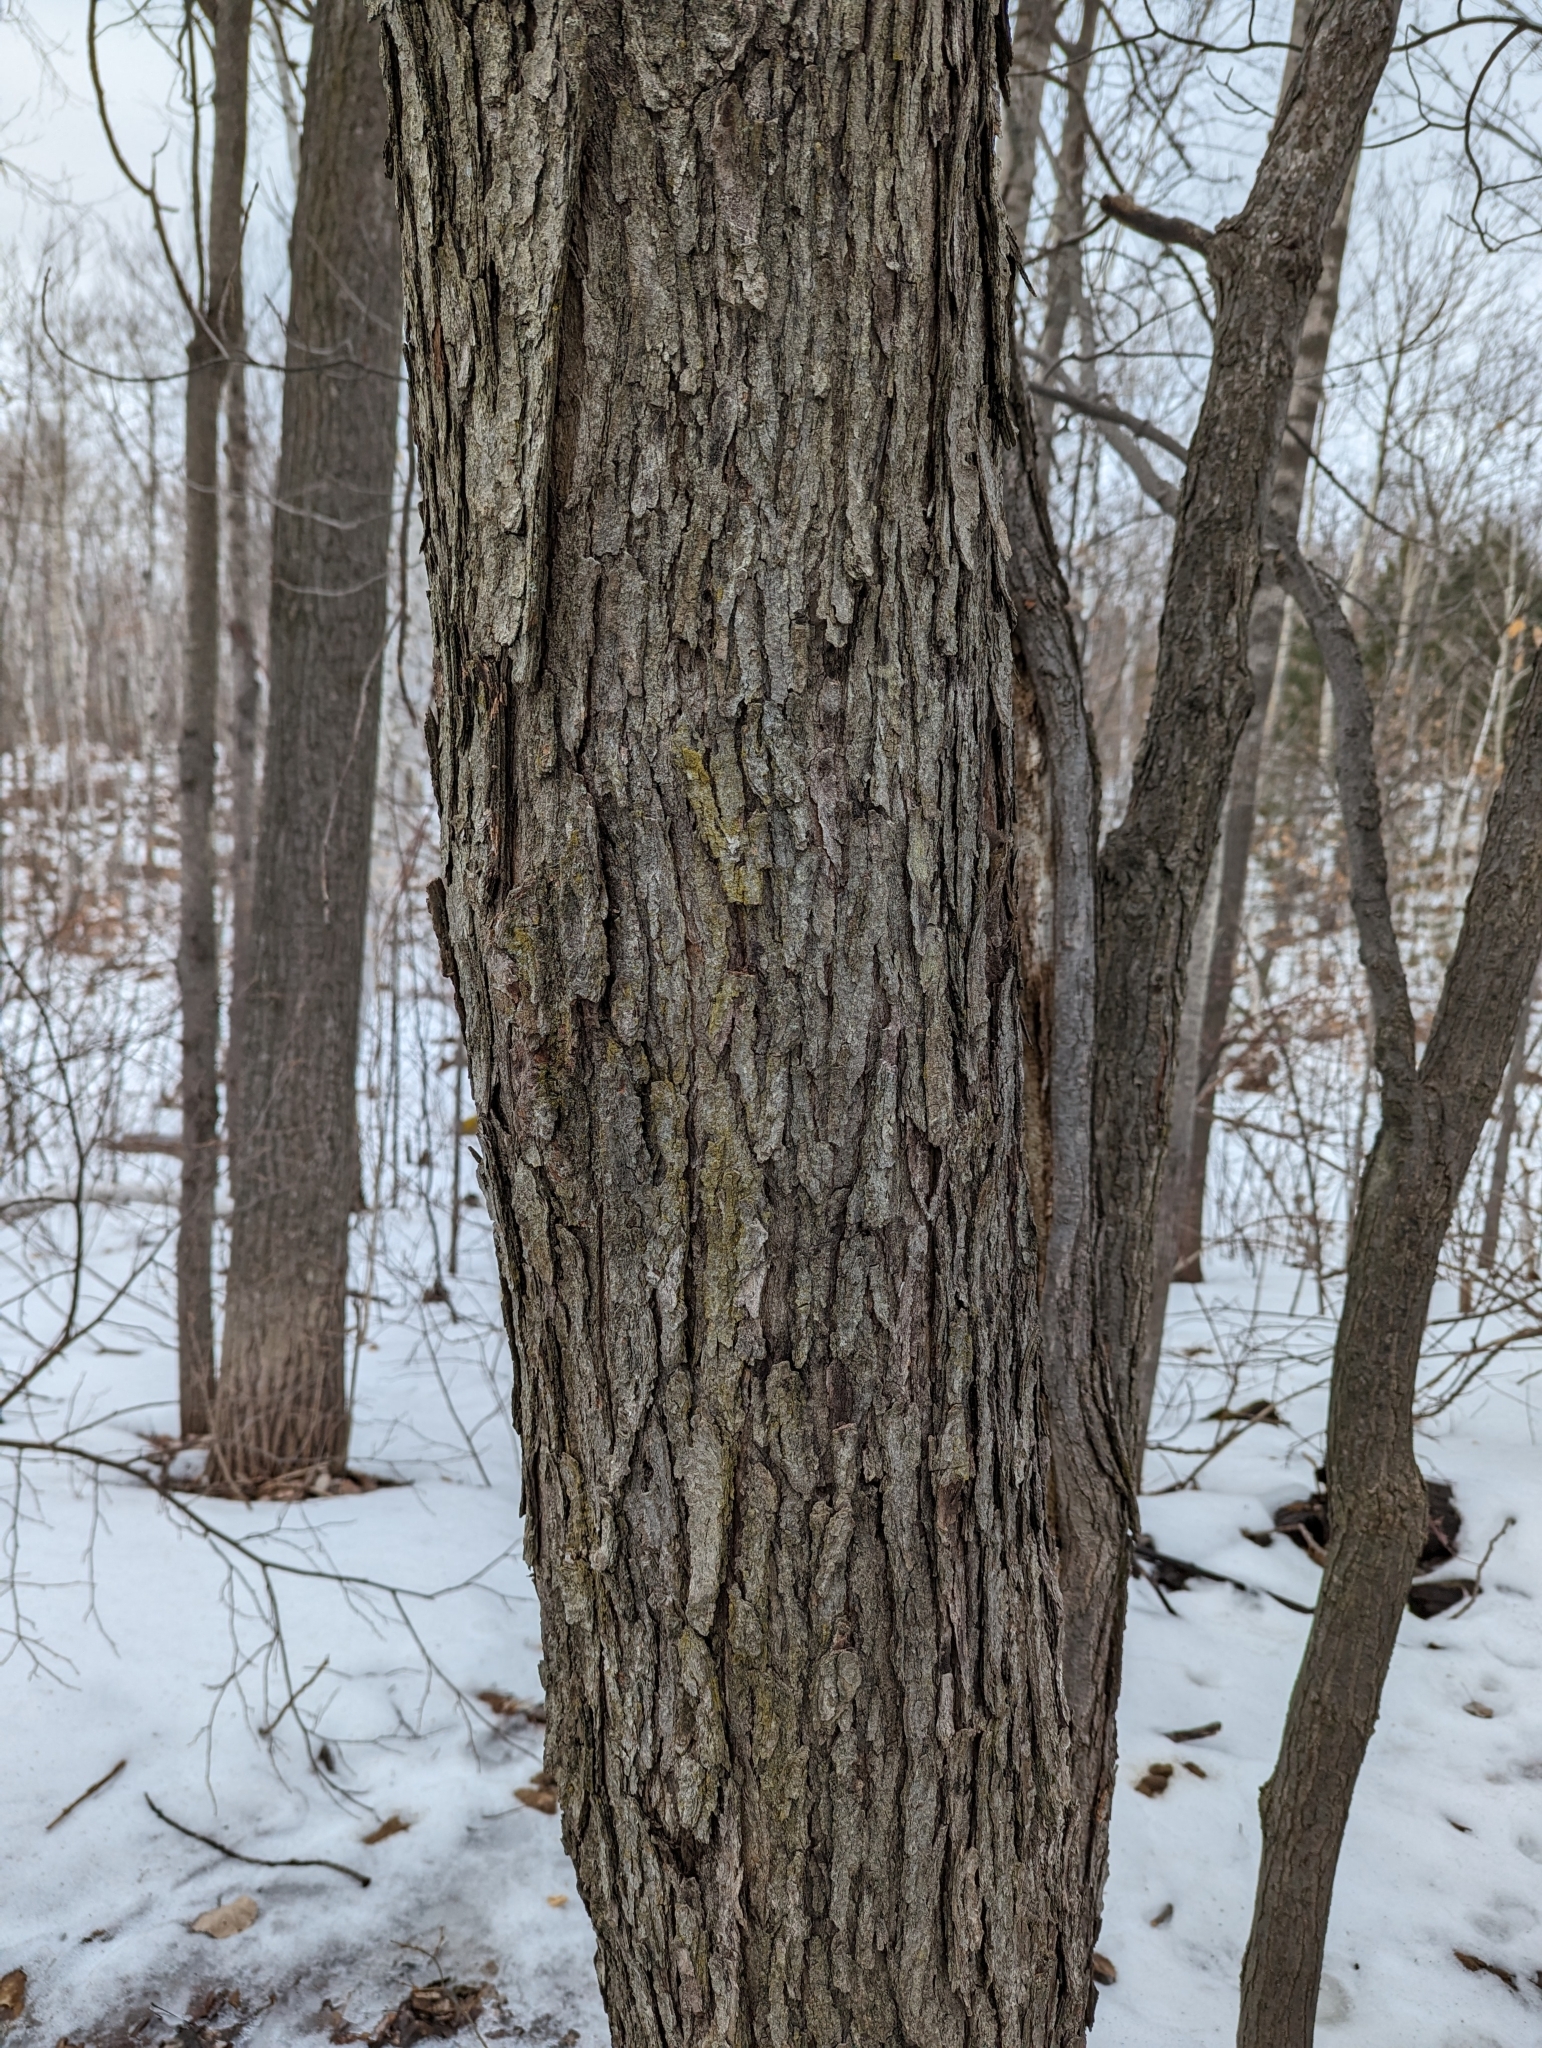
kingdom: Plantae
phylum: Tracheophyta
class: Magnoliopsida
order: Fagales
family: Betulaceae
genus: Ostrya
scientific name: Ostrya virginiana
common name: Ironwood
